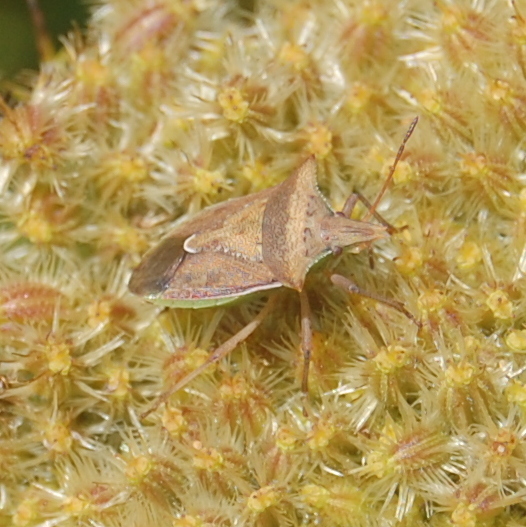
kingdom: Animalia
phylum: Arthropoda
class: Insecta
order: Hemiptera
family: Pentatomidae
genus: Diceraeus
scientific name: Diceraeus furcatus
